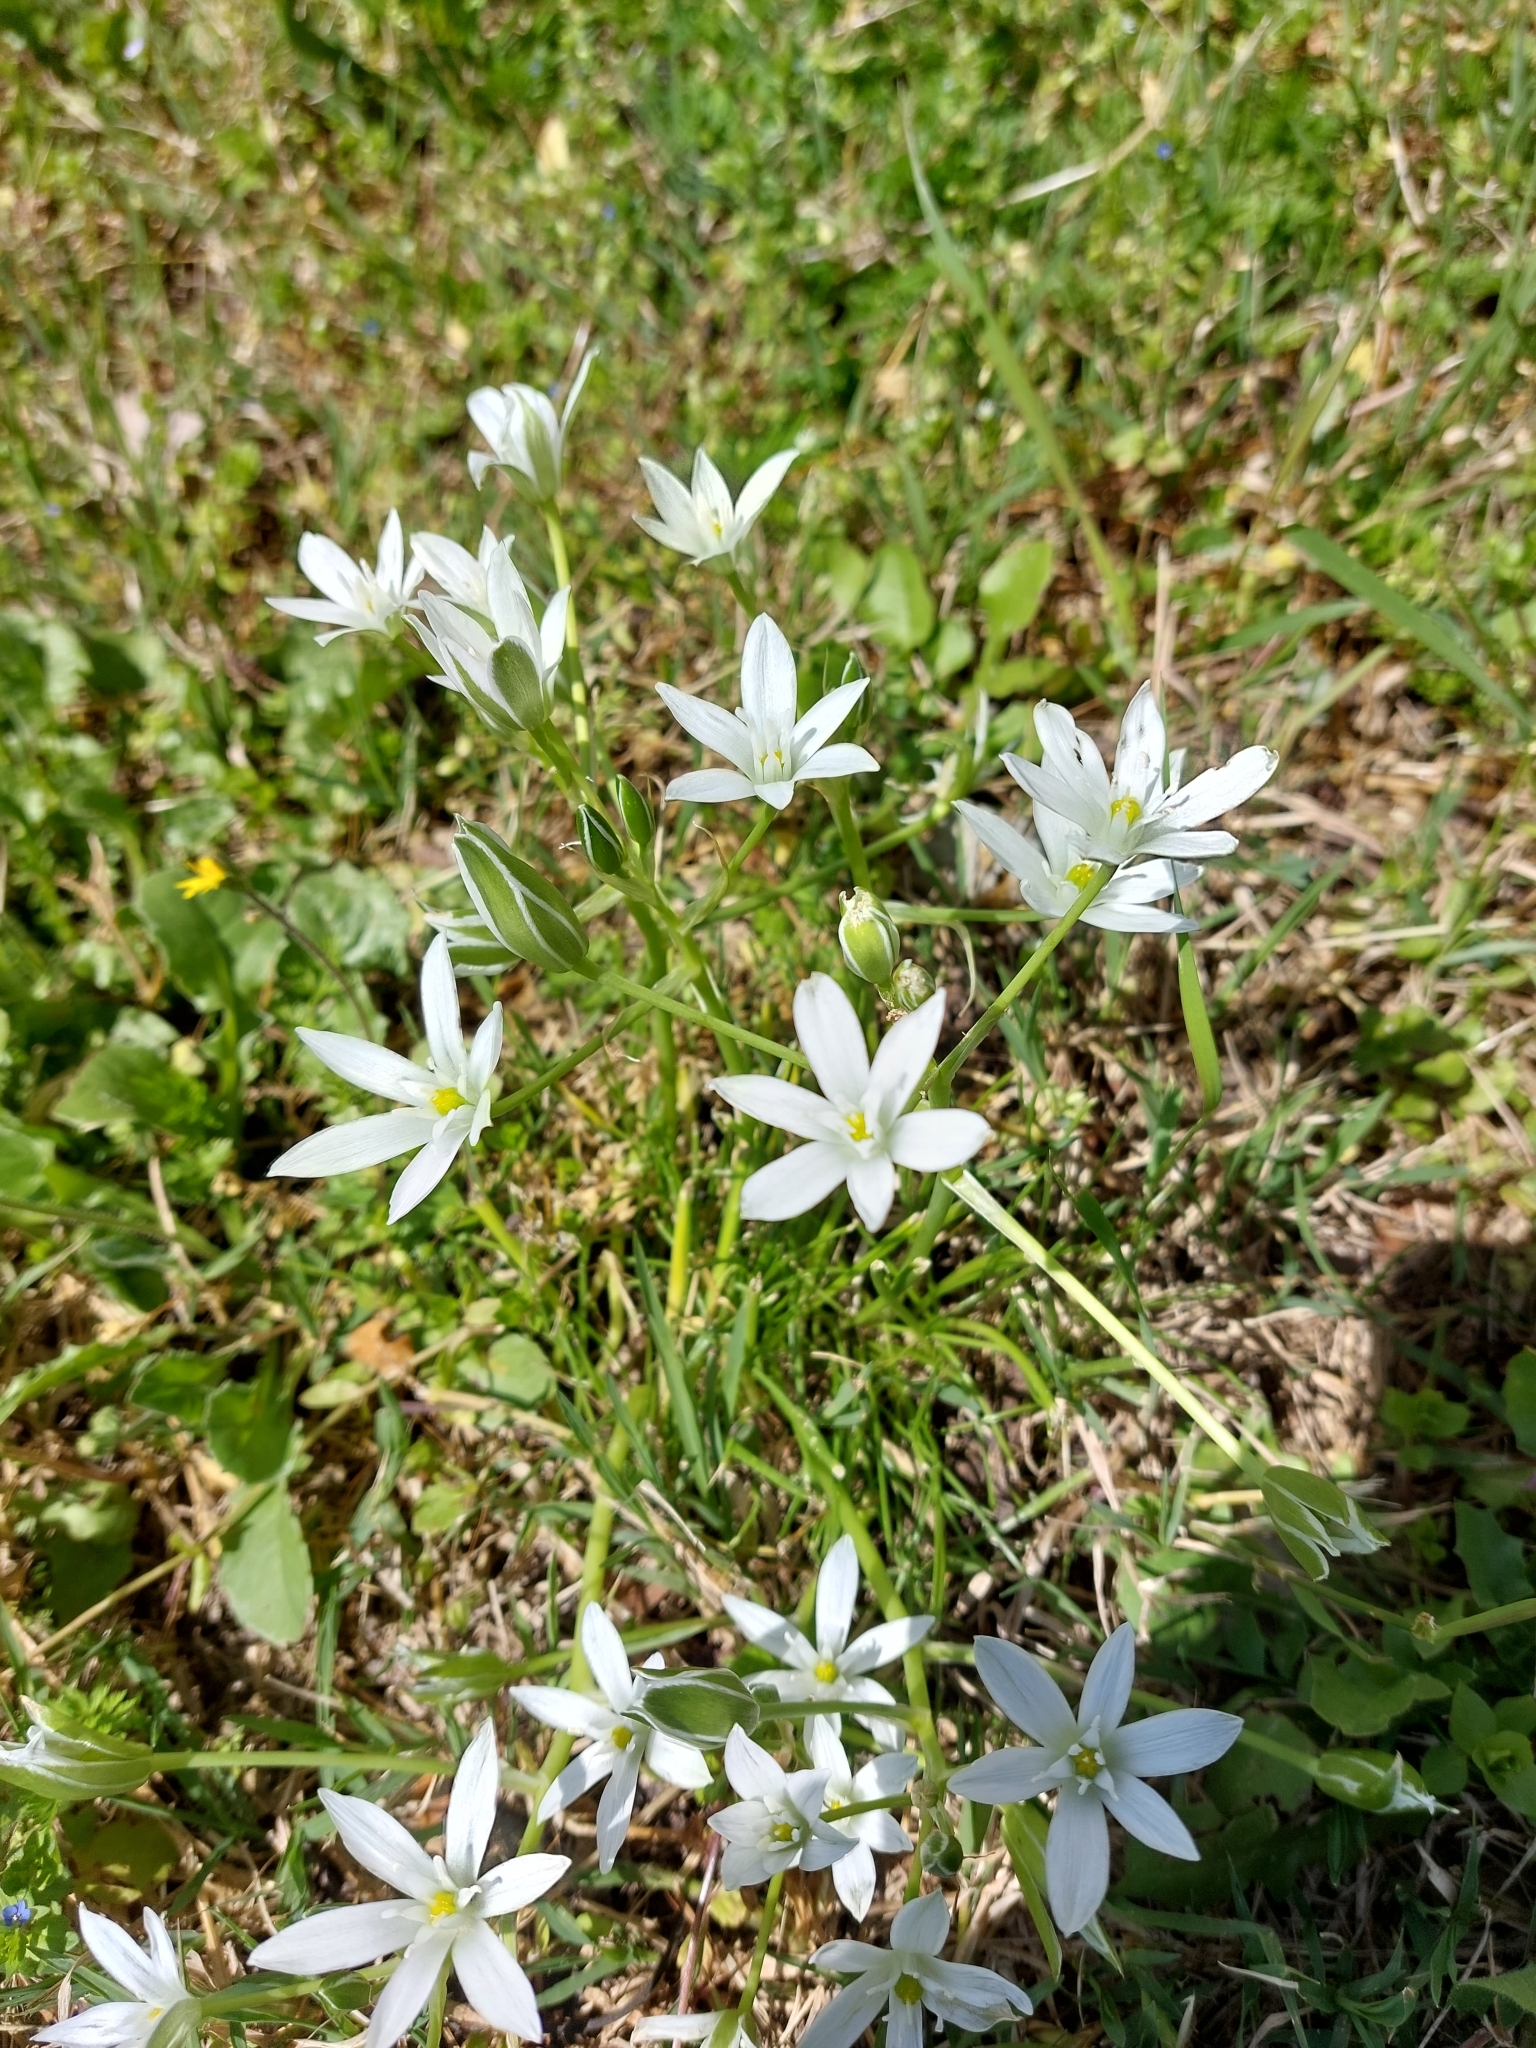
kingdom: Plantae
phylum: Tracheophyta
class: Liliopsida
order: Asparagales
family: Asparagaceae
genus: Ornithogalum
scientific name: Ornithogalum divergens
